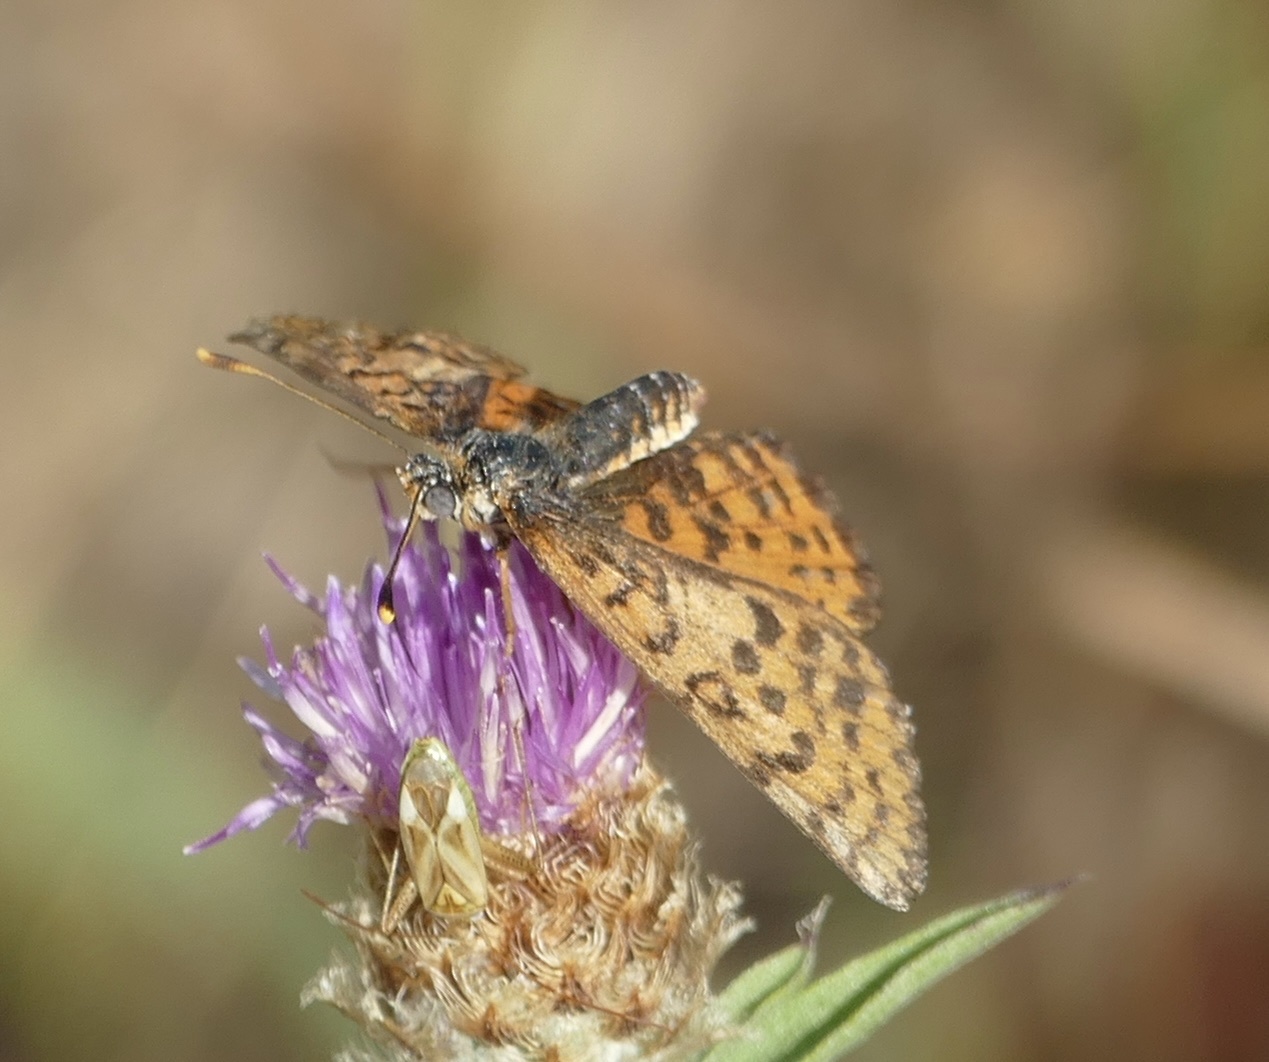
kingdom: Animalia
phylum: Arthropoda
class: Insecta
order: Lepidoptera
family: Nymphalidae
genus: Melitaea
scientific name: Melitaea didyma
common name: Spotted fritillary
